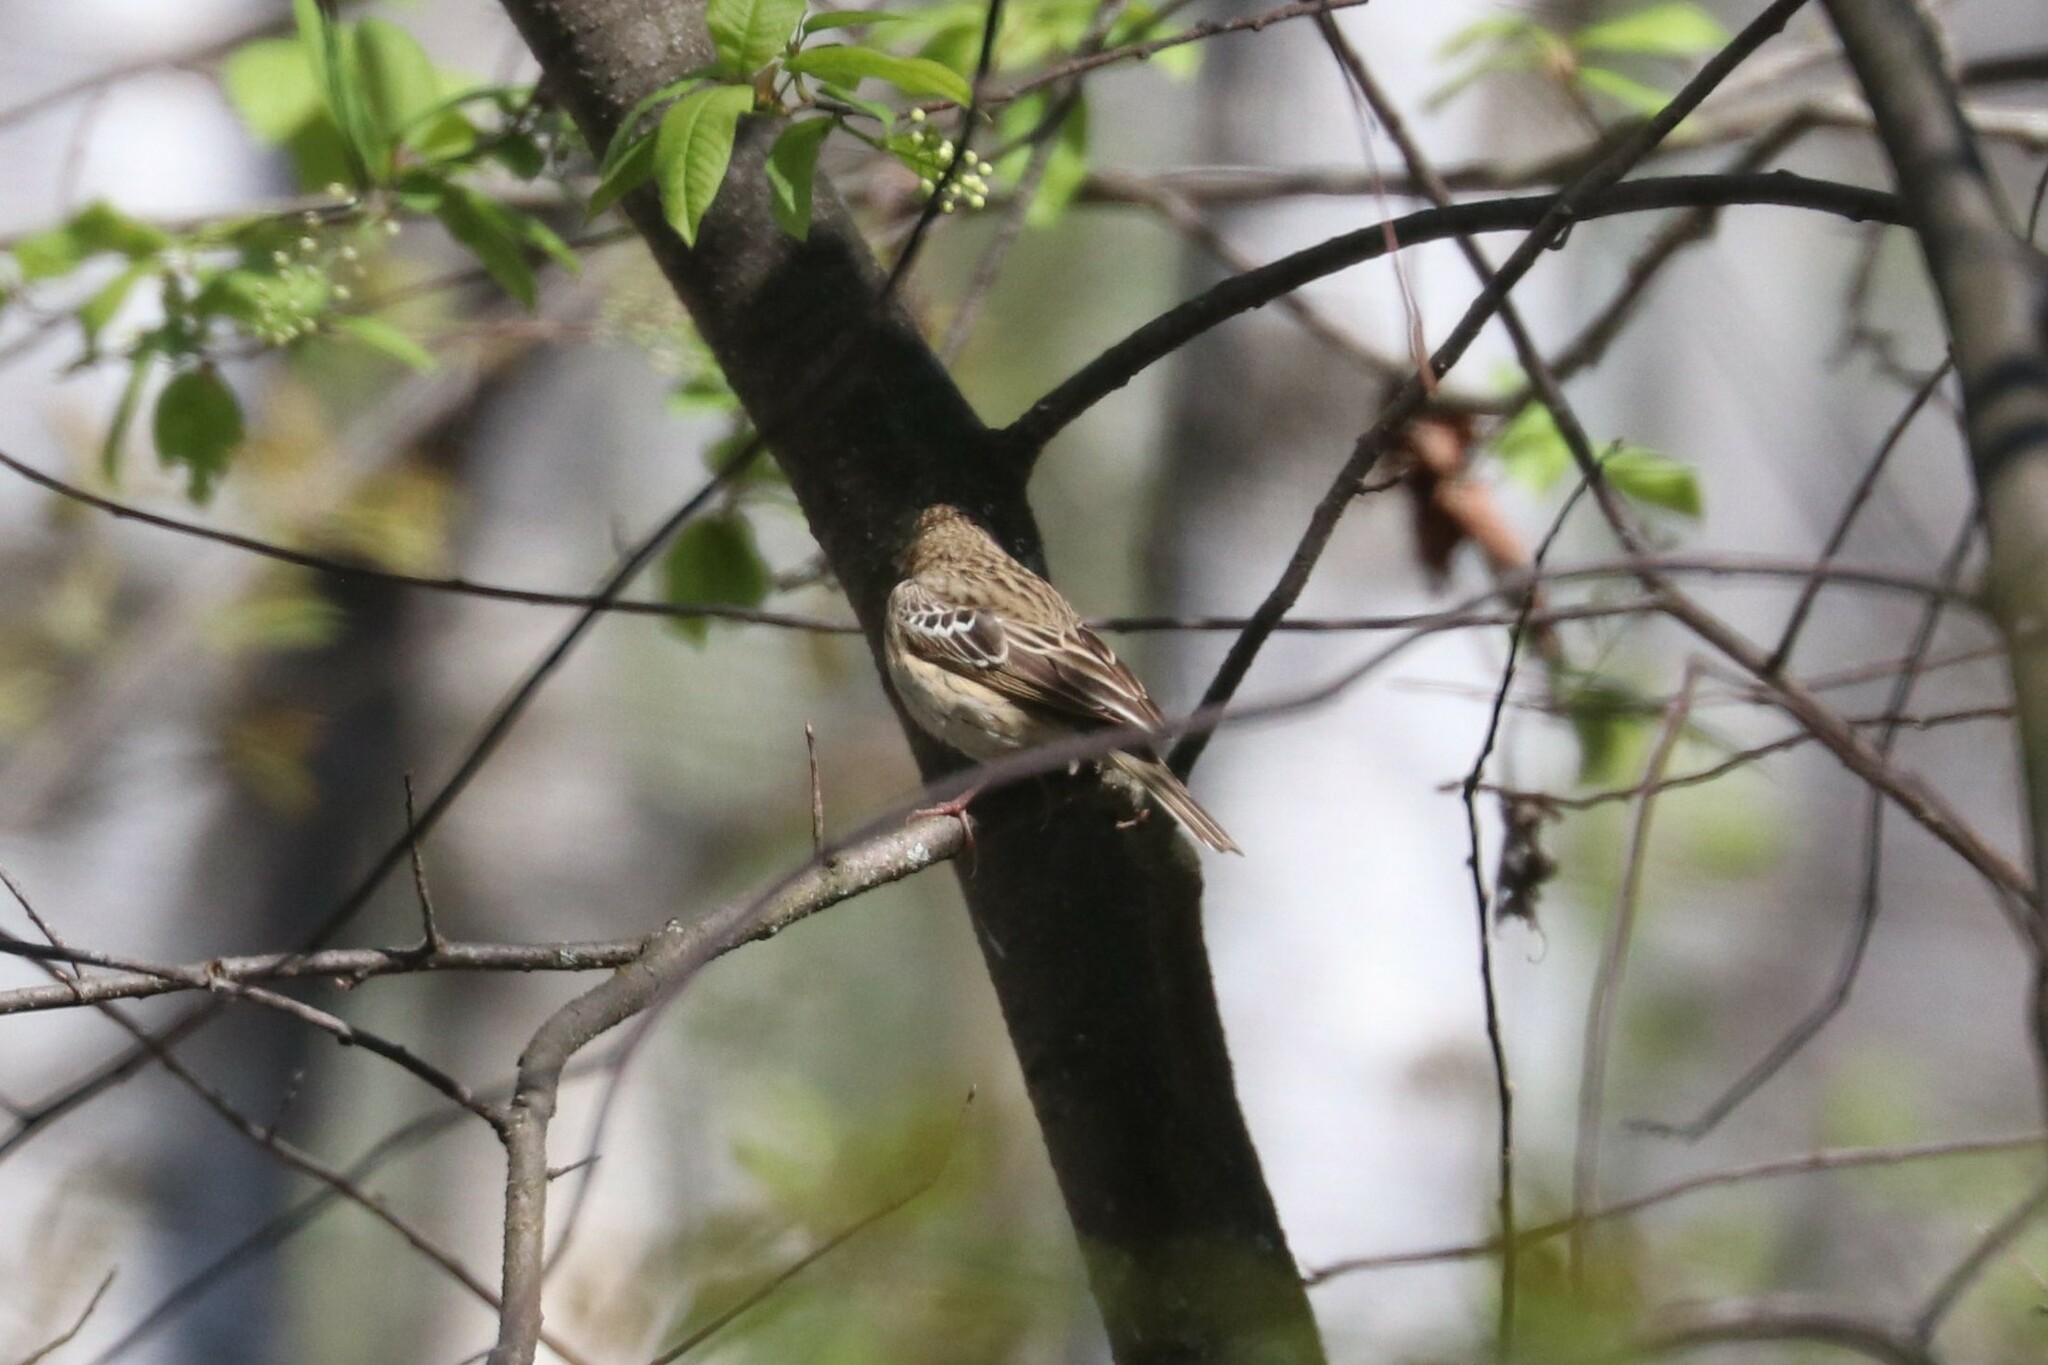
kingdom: Animalia
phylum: Chordata
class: Aves
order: Passeriformes
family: Motacillidae
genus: Anthus
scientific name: Anthus trivialis
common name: Tree pipit
